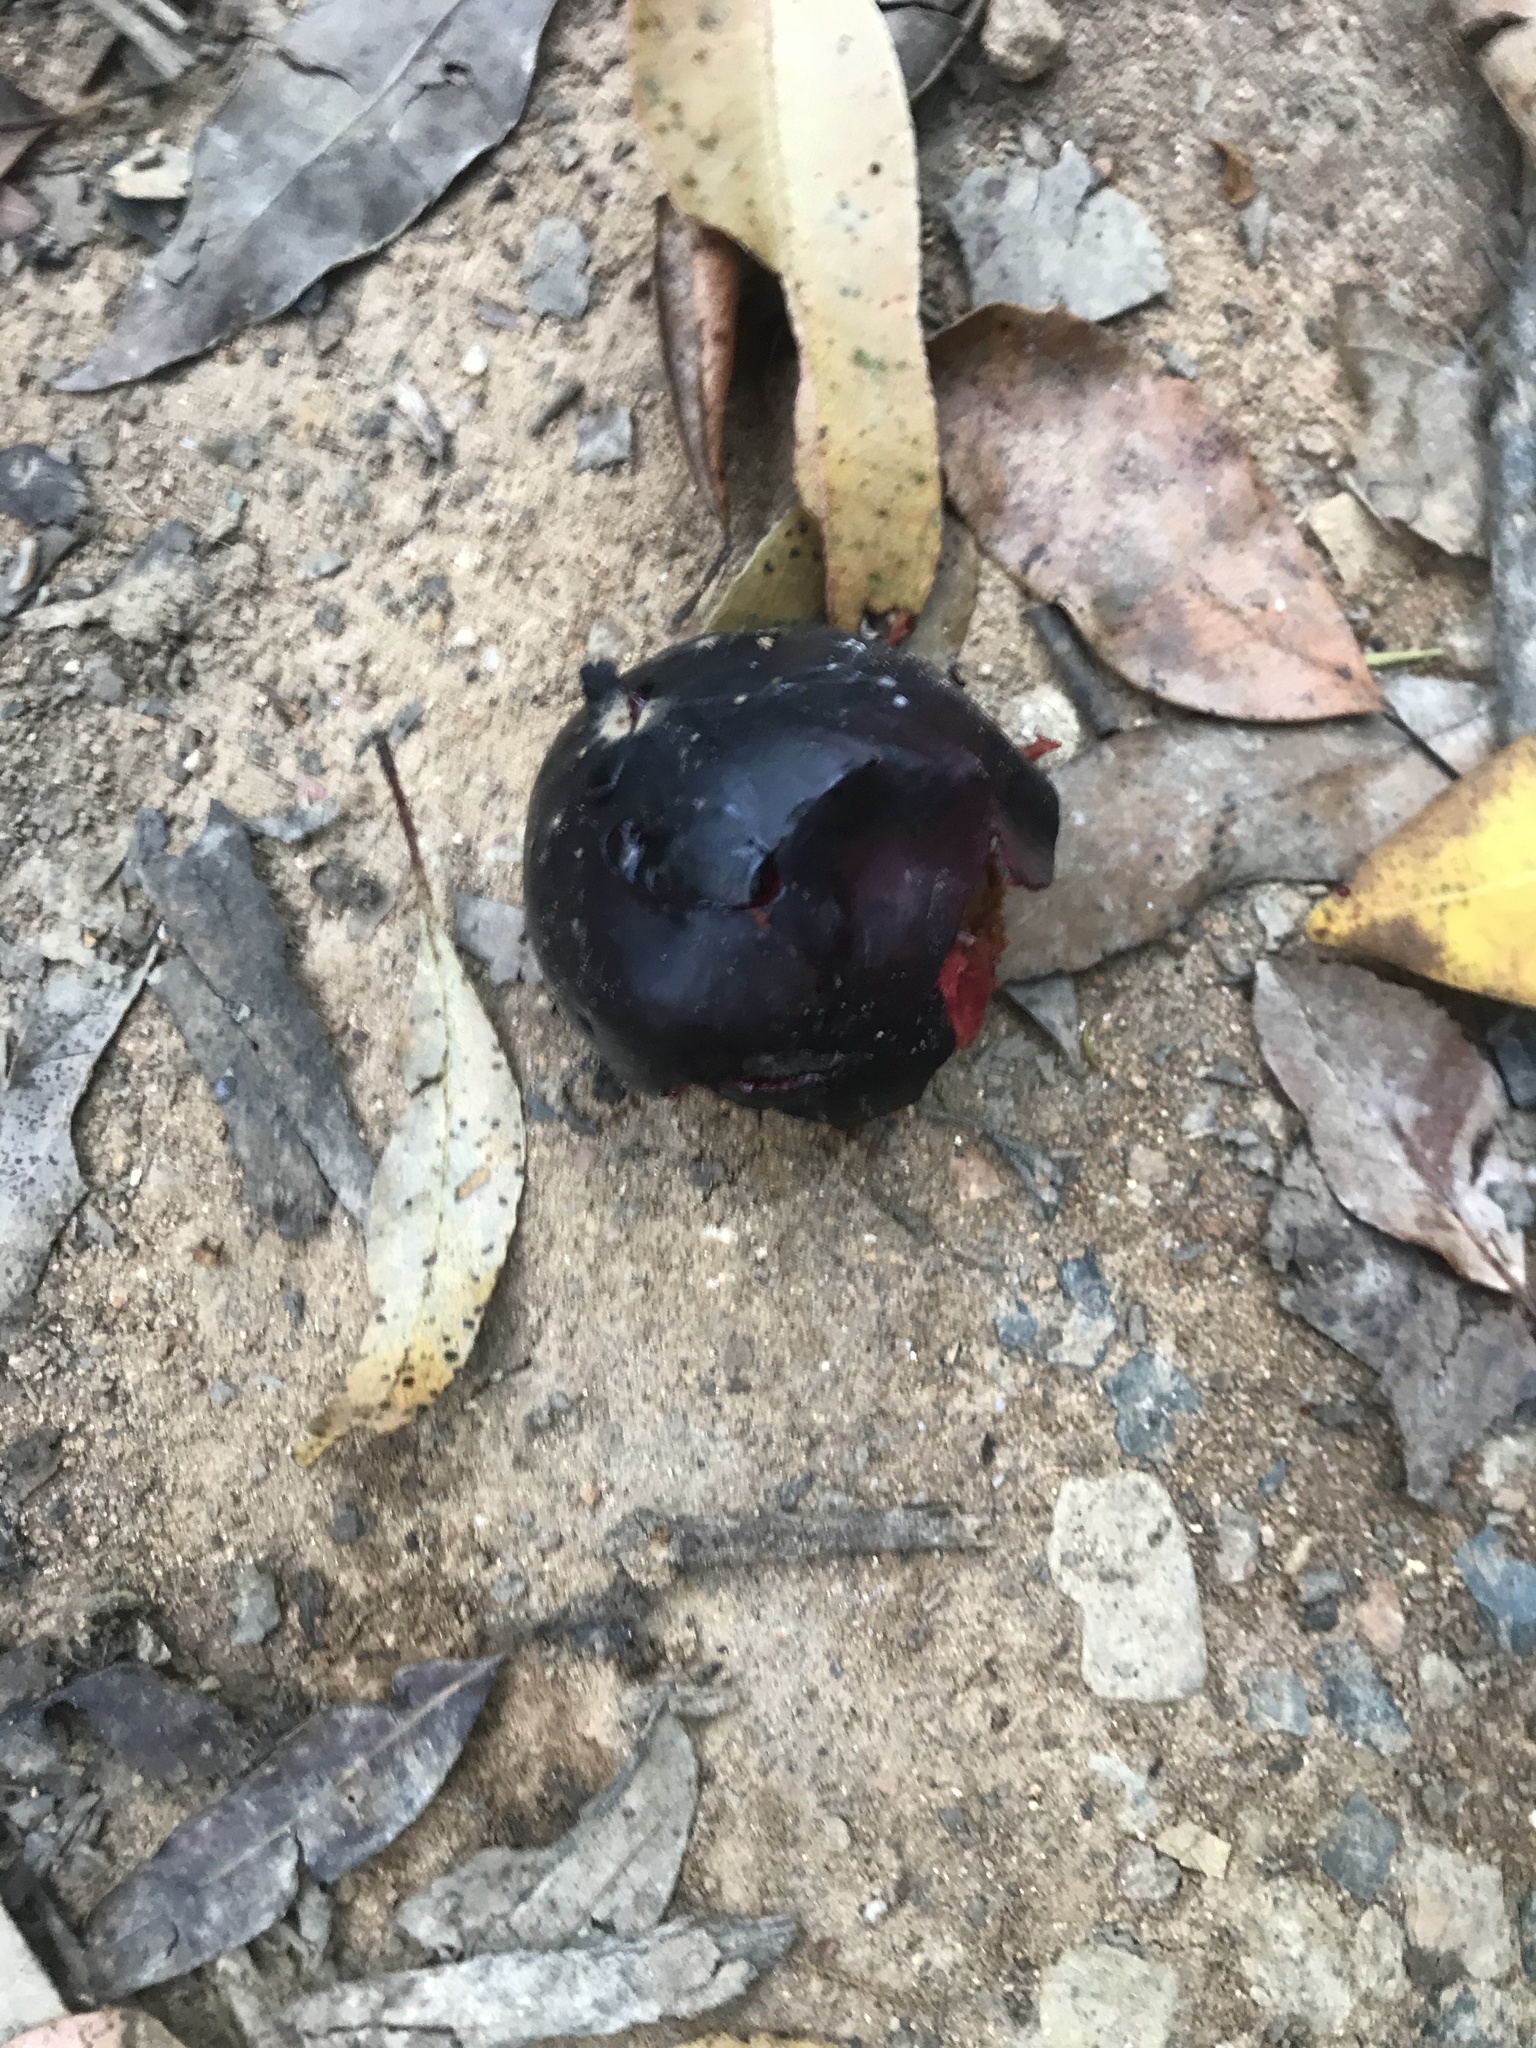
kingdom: Plantae
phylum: Tracheophyta
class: Magnoliopsida
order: Ericales
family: Sapotaceae
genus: Niemeyera
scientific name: Niemeyera whitei
